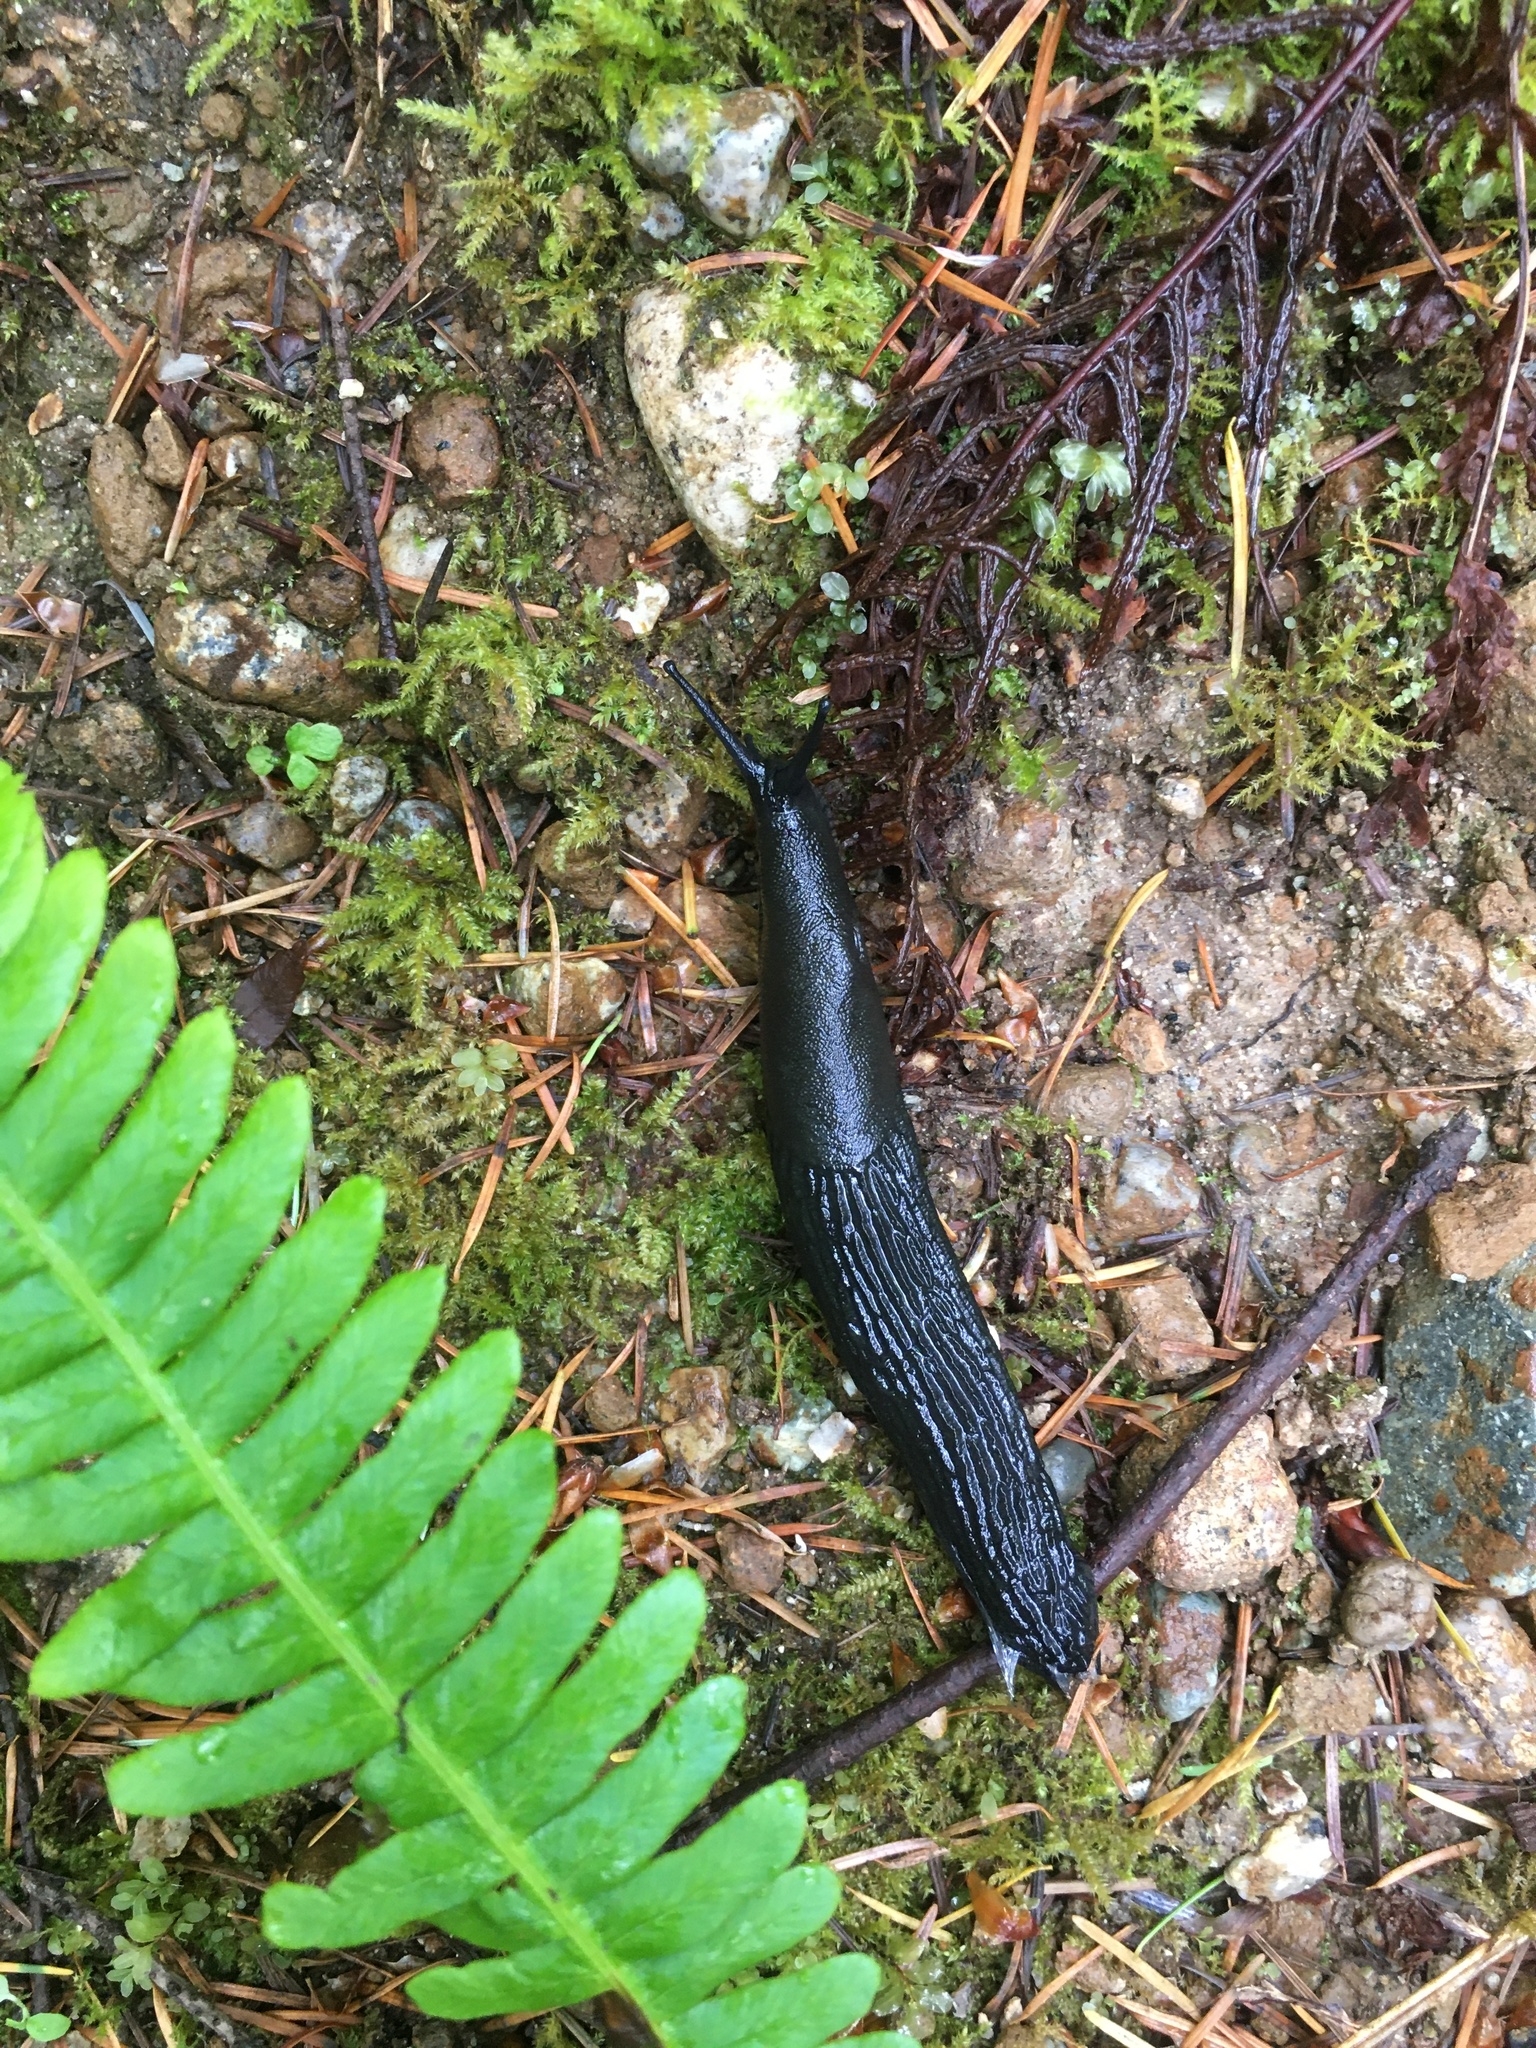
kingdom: Animalia
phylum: Mollusca
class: Gastropoda
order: Stylommatophora
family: Arionidae
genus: Arion
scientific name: Arion rufus
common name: Chocolate arion
